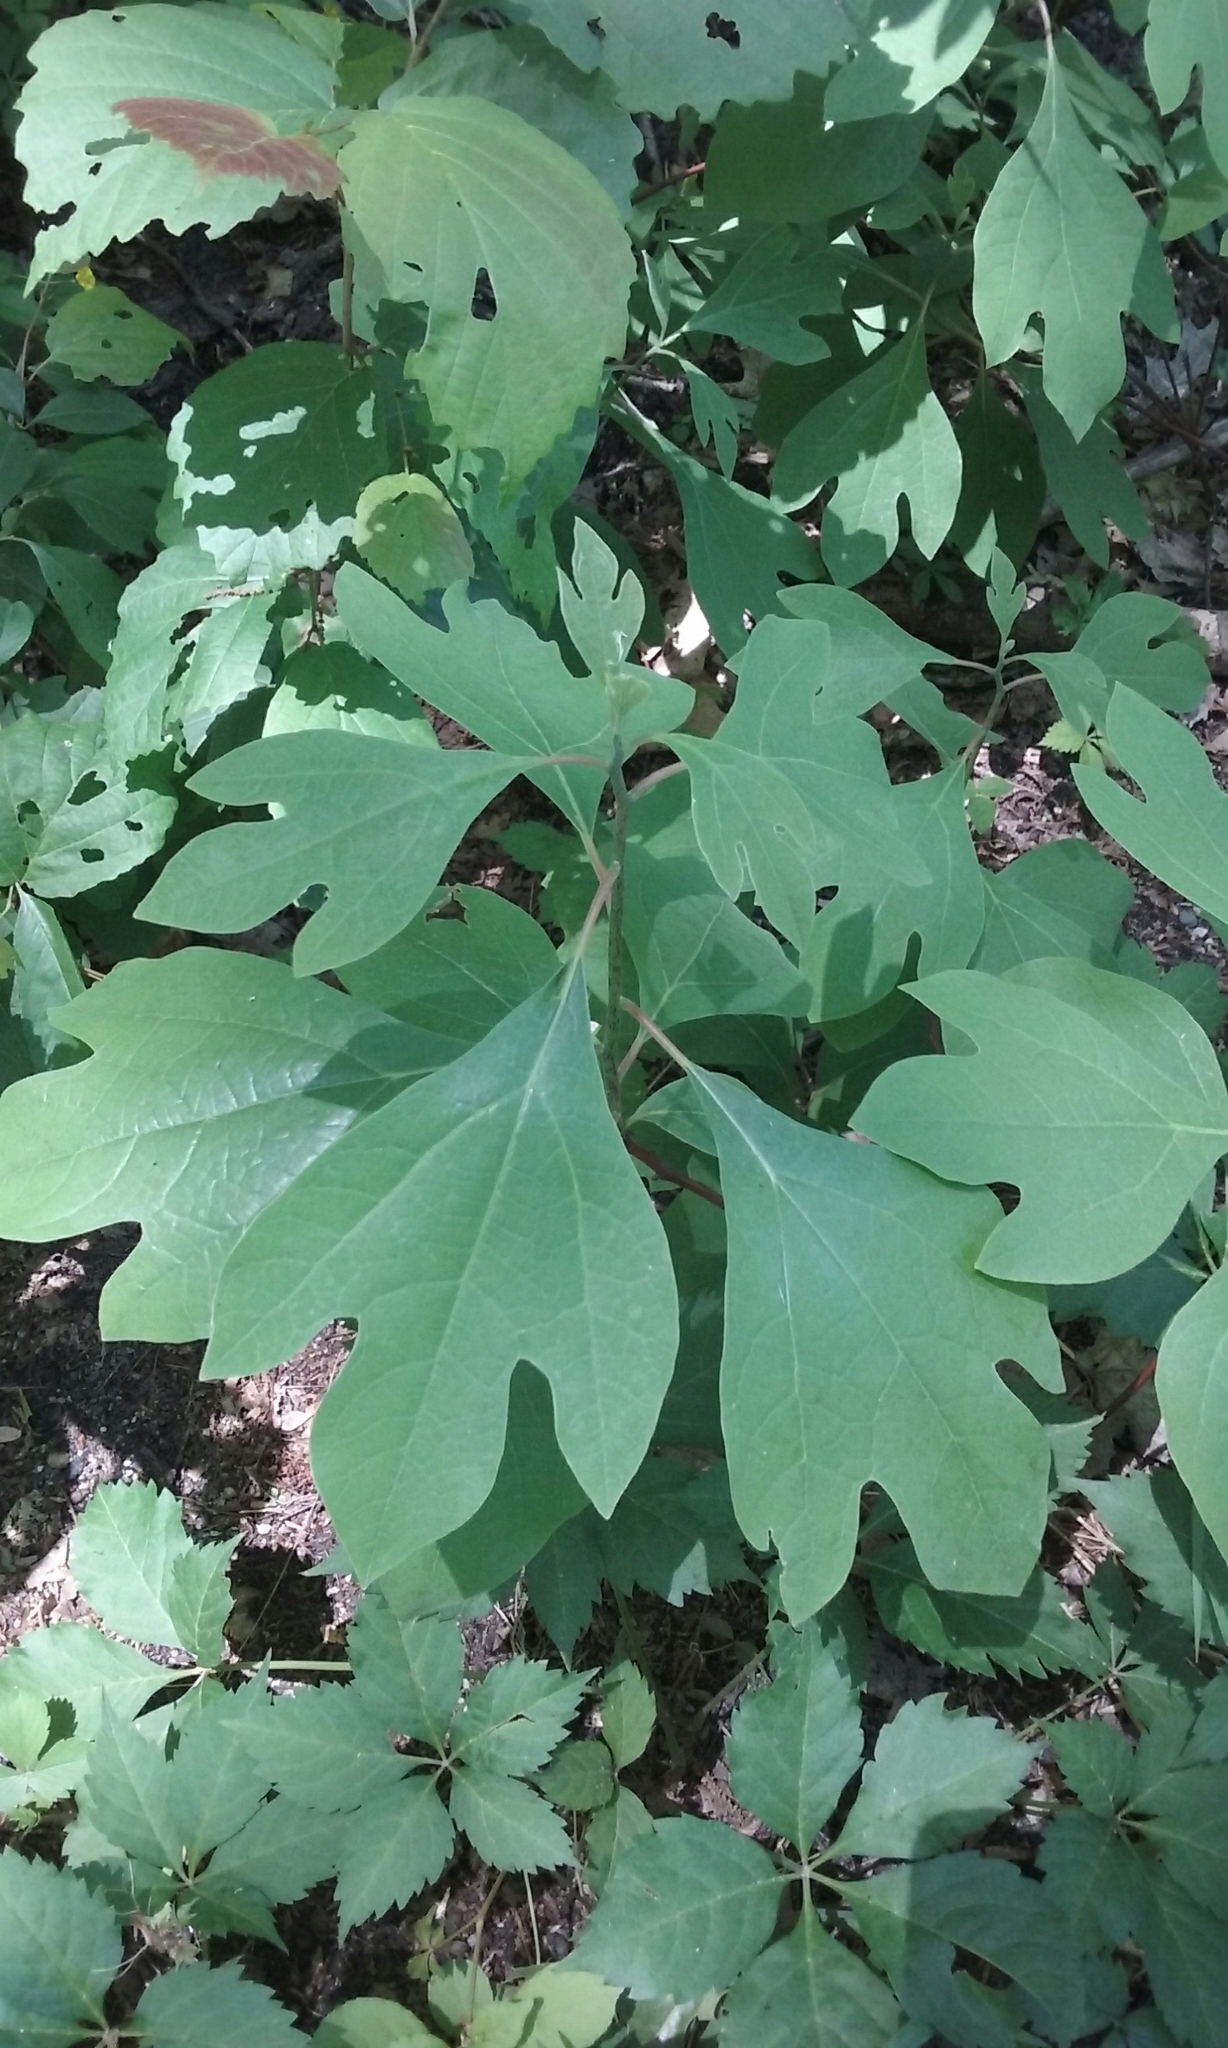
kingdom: Plantae
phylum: Tracheophyta
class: Magnoliopsida
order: Laurales
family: Lauraceae
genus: Sassafras
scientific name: Sassafras albidum
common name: Sassafras
